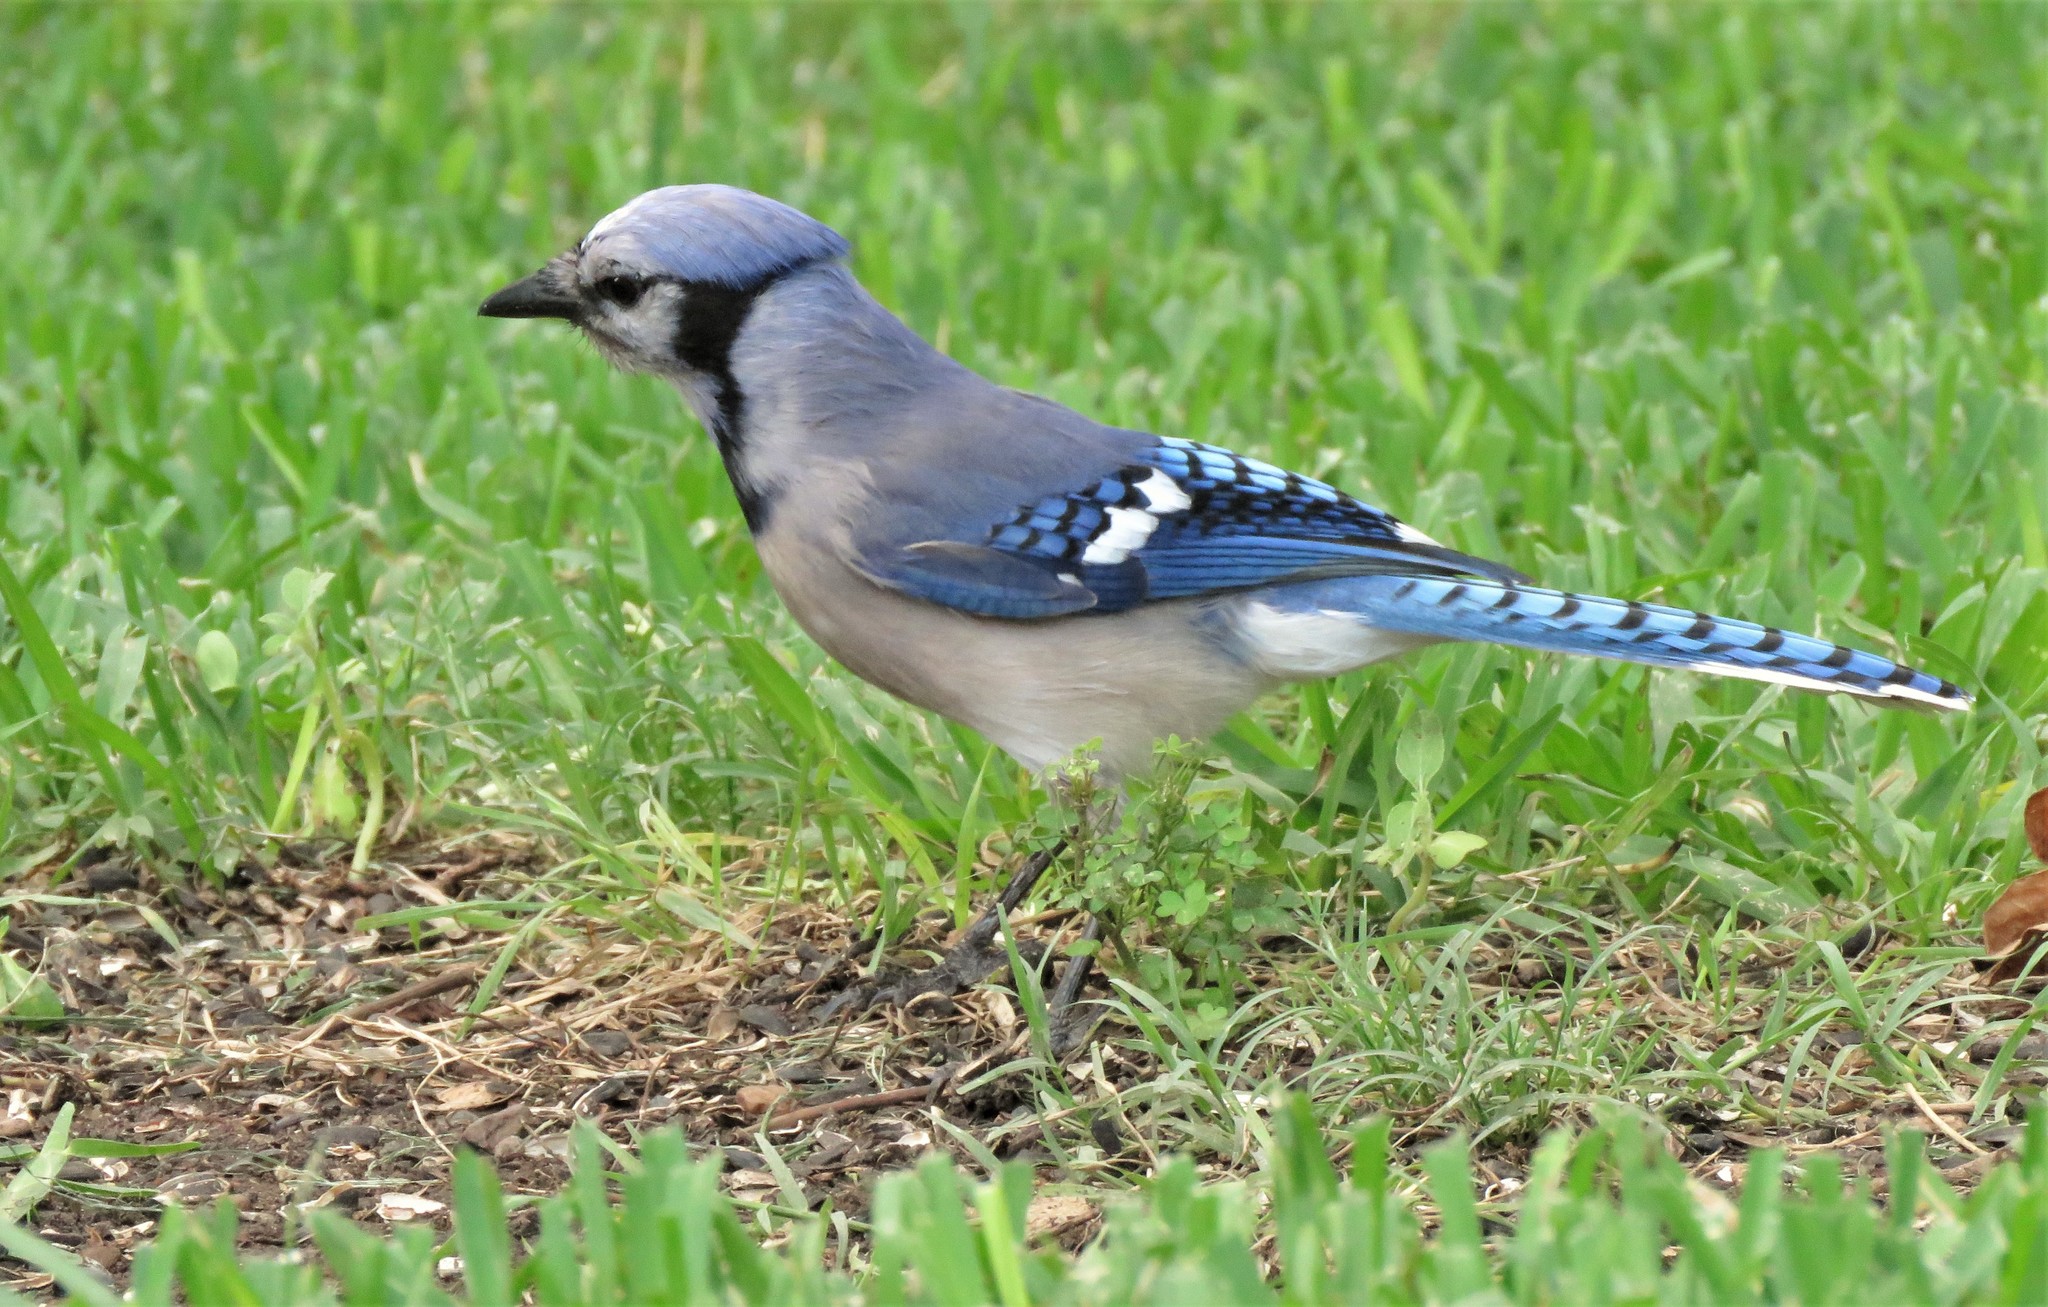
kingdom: Animalia
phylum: Chordata
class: Aves
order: Passeriformes
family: Corvidae
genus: Cyanocitta
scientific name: Cyanocitta cristata
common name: Blue jay
